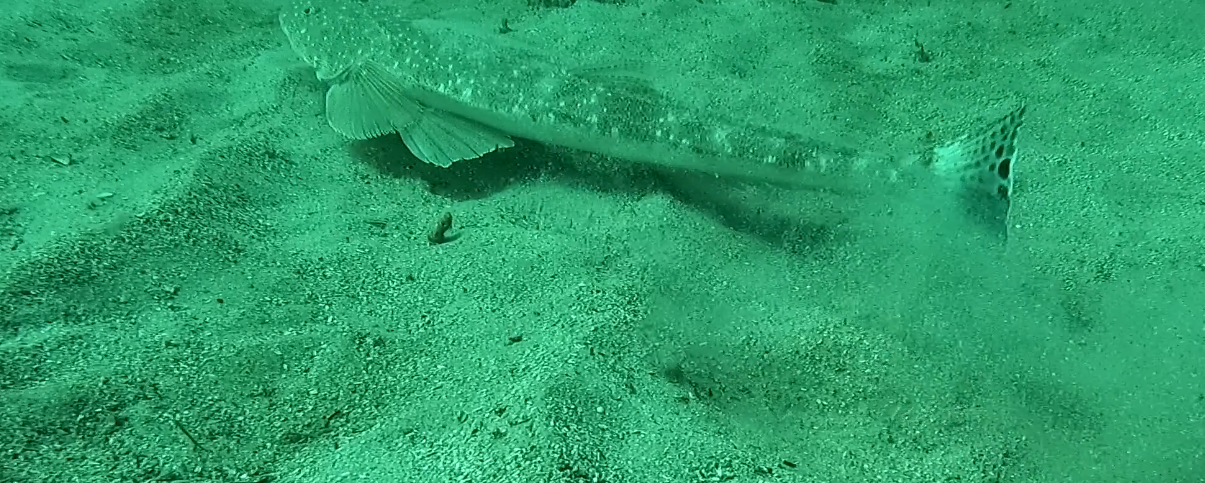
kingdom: Animalia
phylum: Chordata
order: Scorpaeniformes
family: Platycephalidae
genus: Platycephalus
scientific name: Platycephalus fuscus
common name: Dusky flathead
